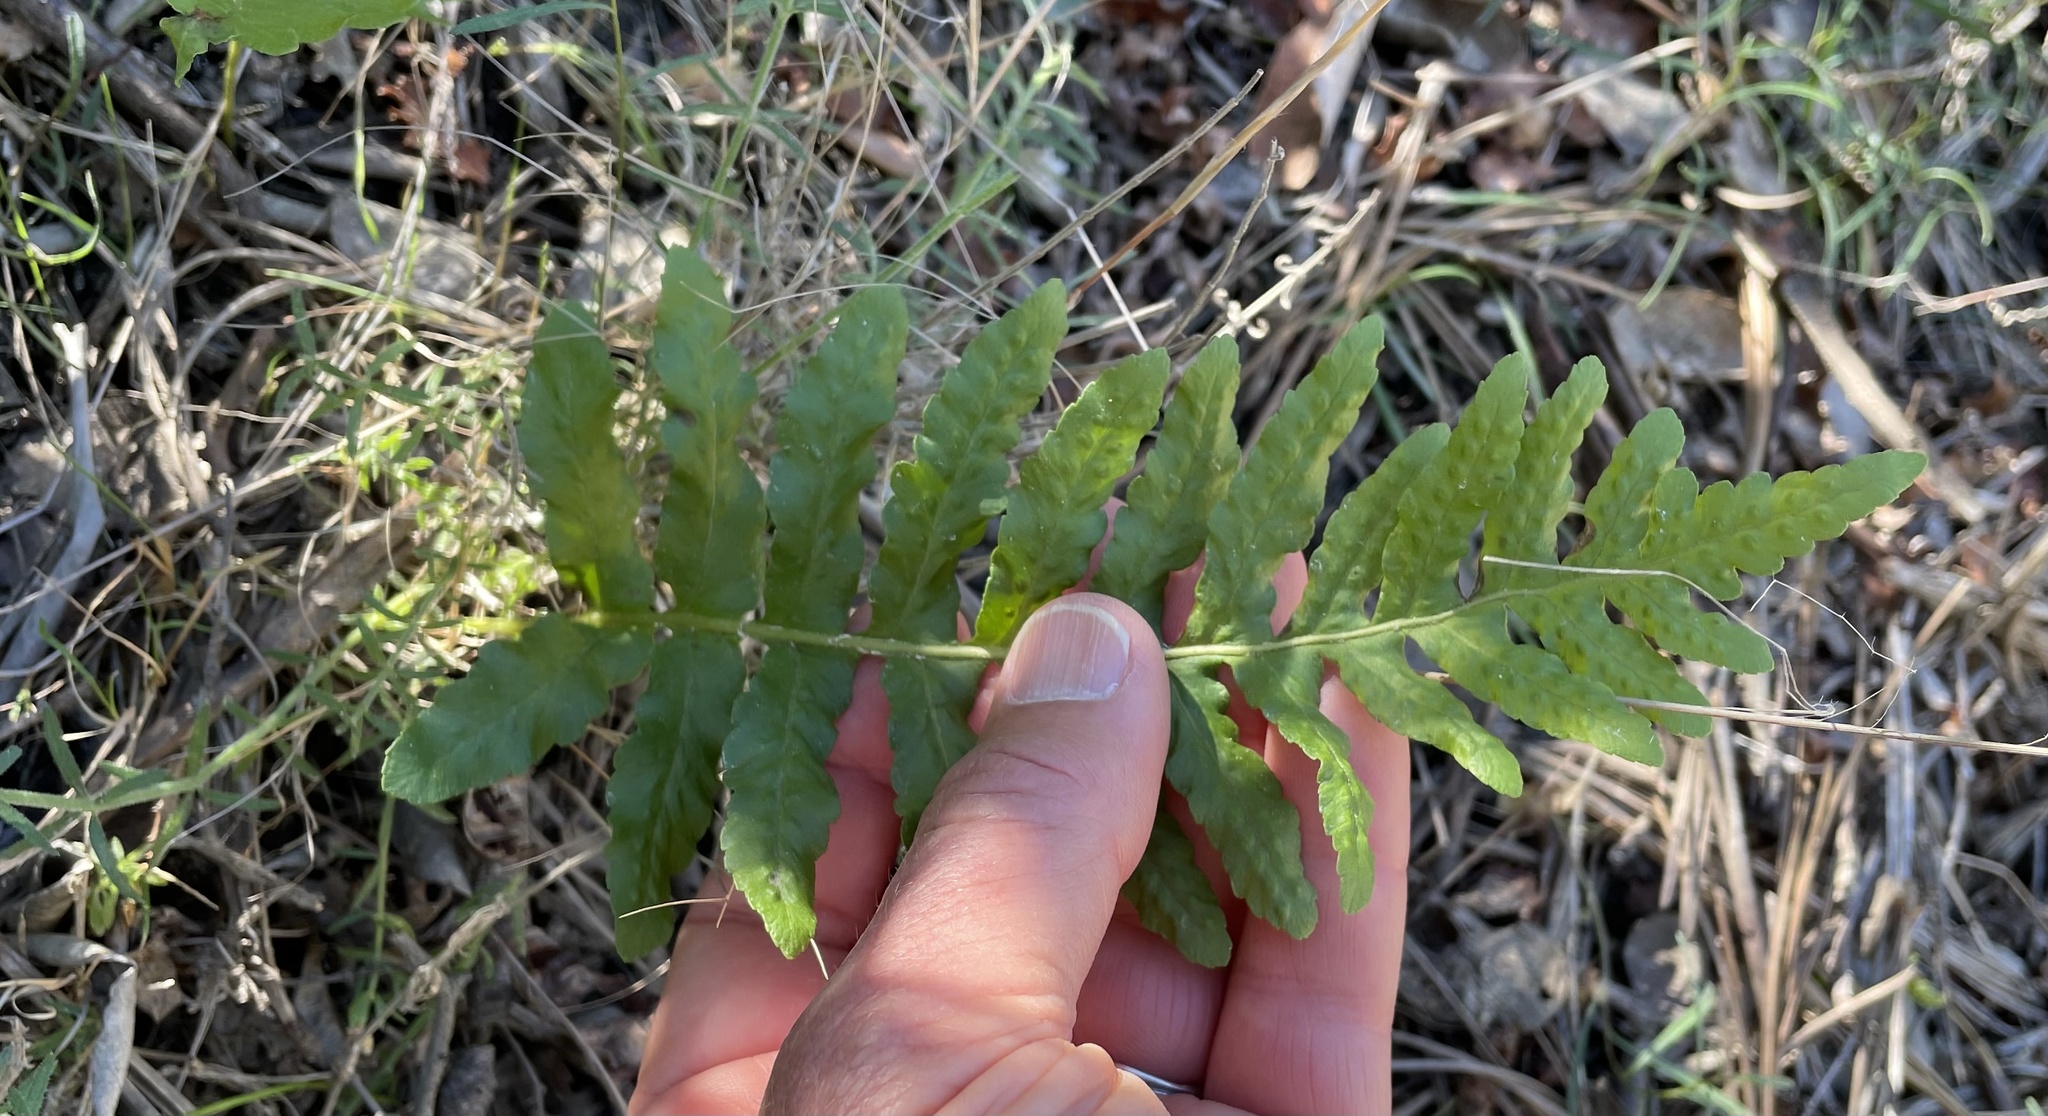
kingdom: Plantae
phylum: Tracheophyta
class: Polypodiopsida
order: Polypodiales
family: Polypodiaceae
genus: Polypodium
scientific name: Polypodium californicum
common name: California polypody
